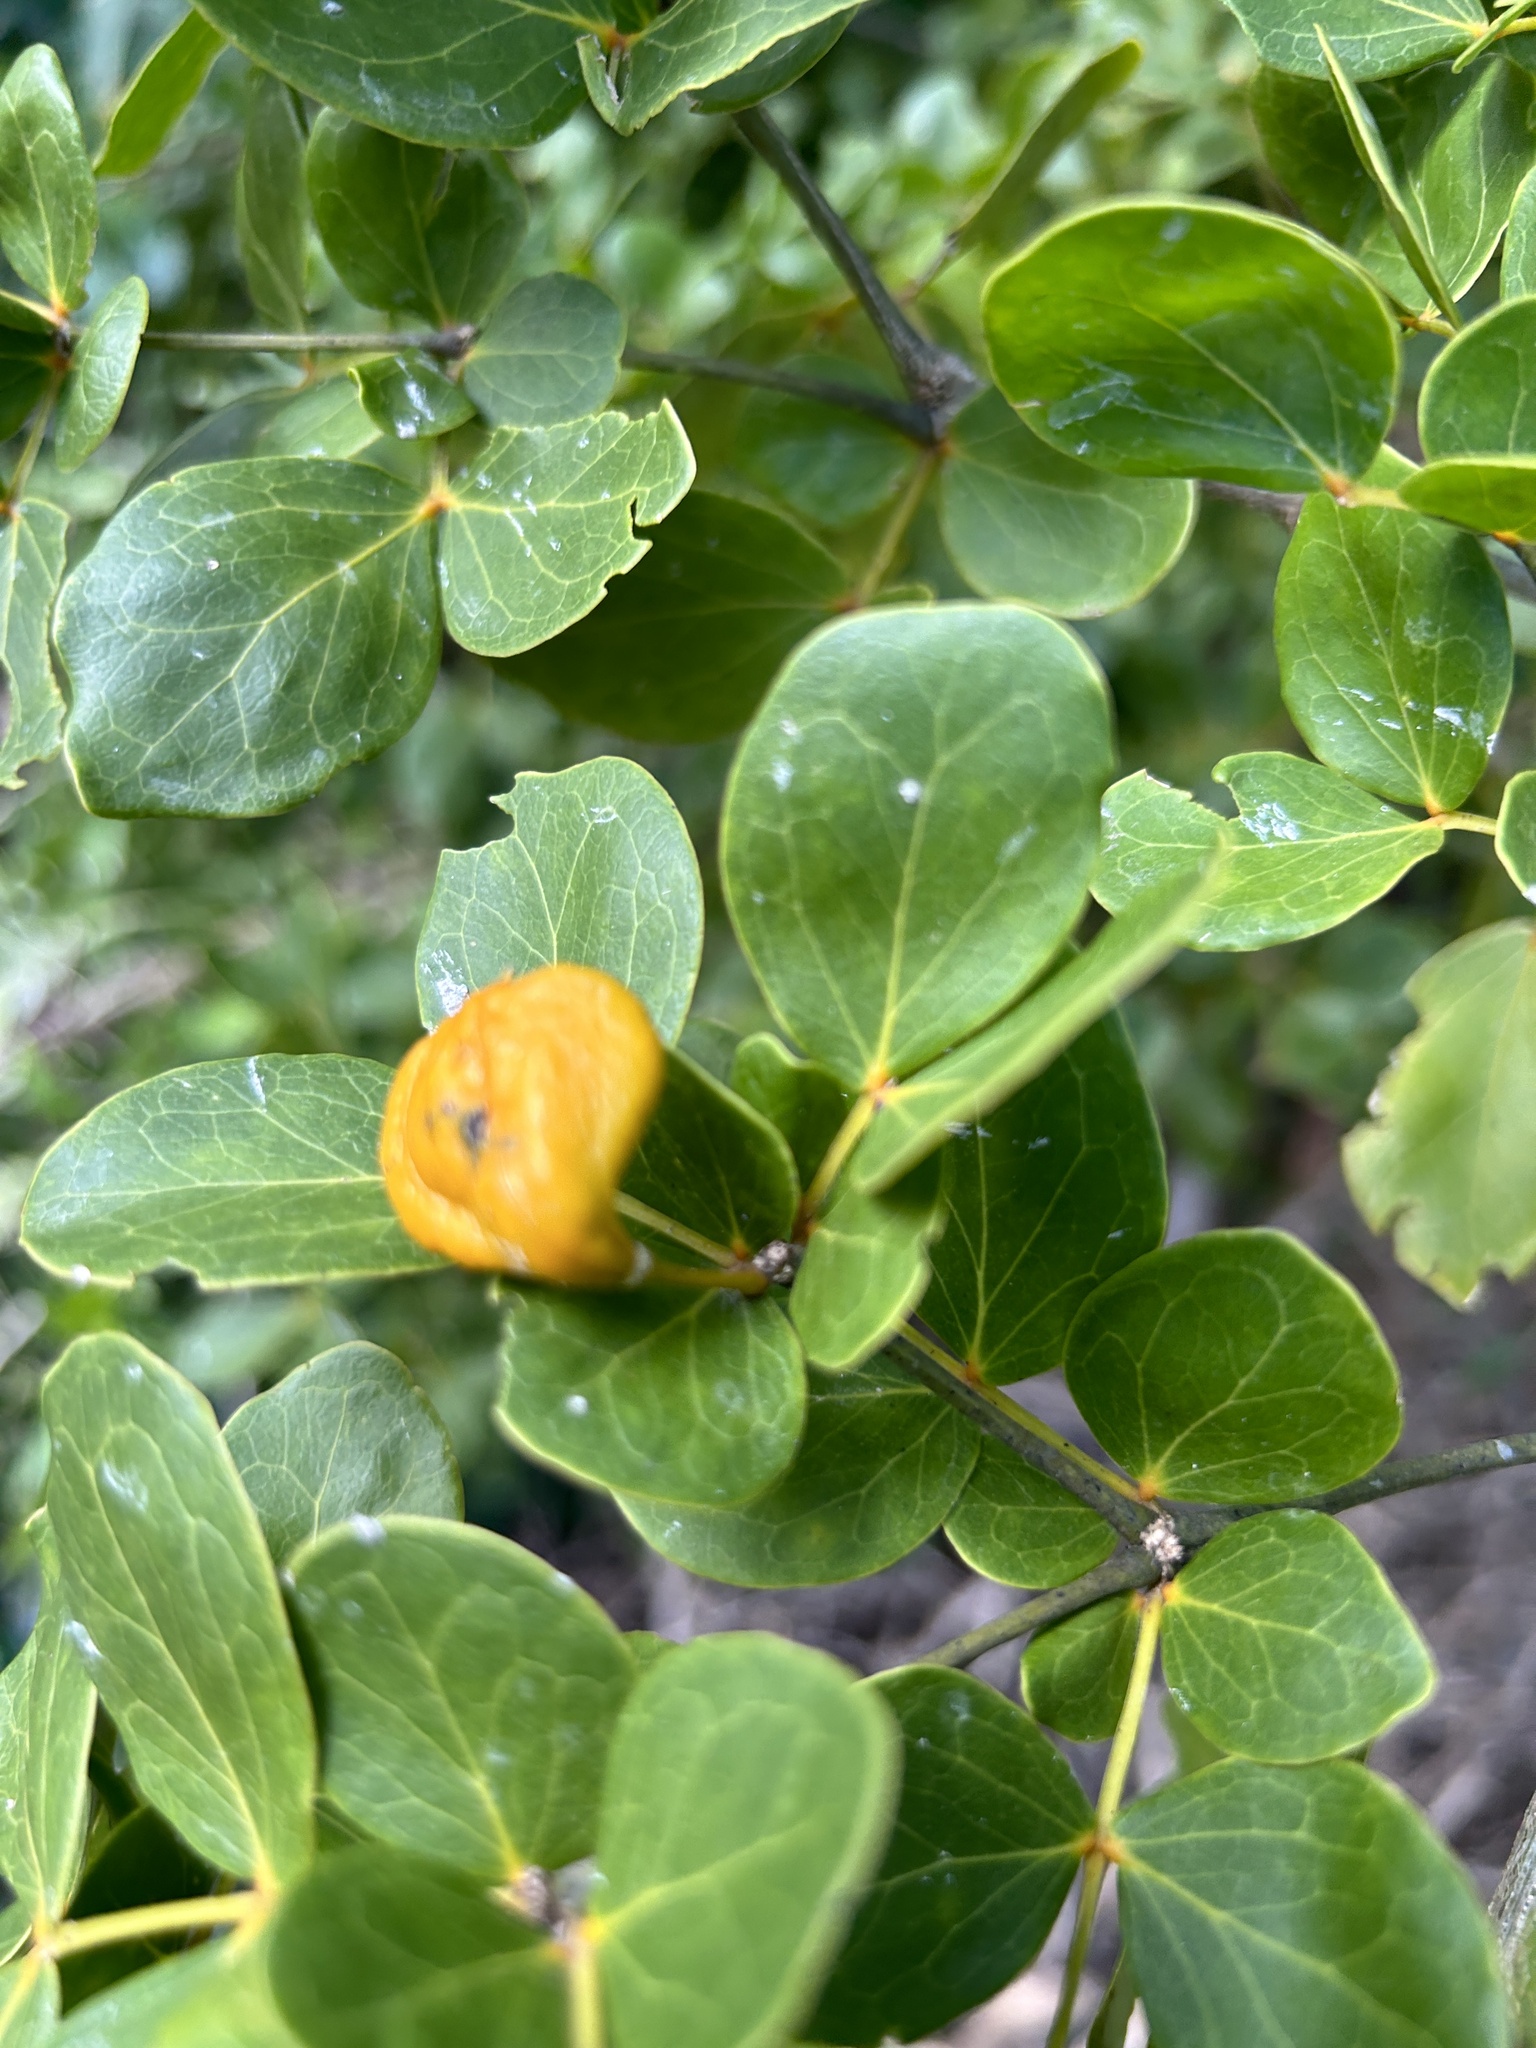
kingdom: Plantae
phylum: Tracheophyta
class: Magnoliopsida
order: Zygophyllales
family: Zygophyllaceae
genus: Guaiacum
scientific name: Guaiacum officinale
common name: Lignum vitae
